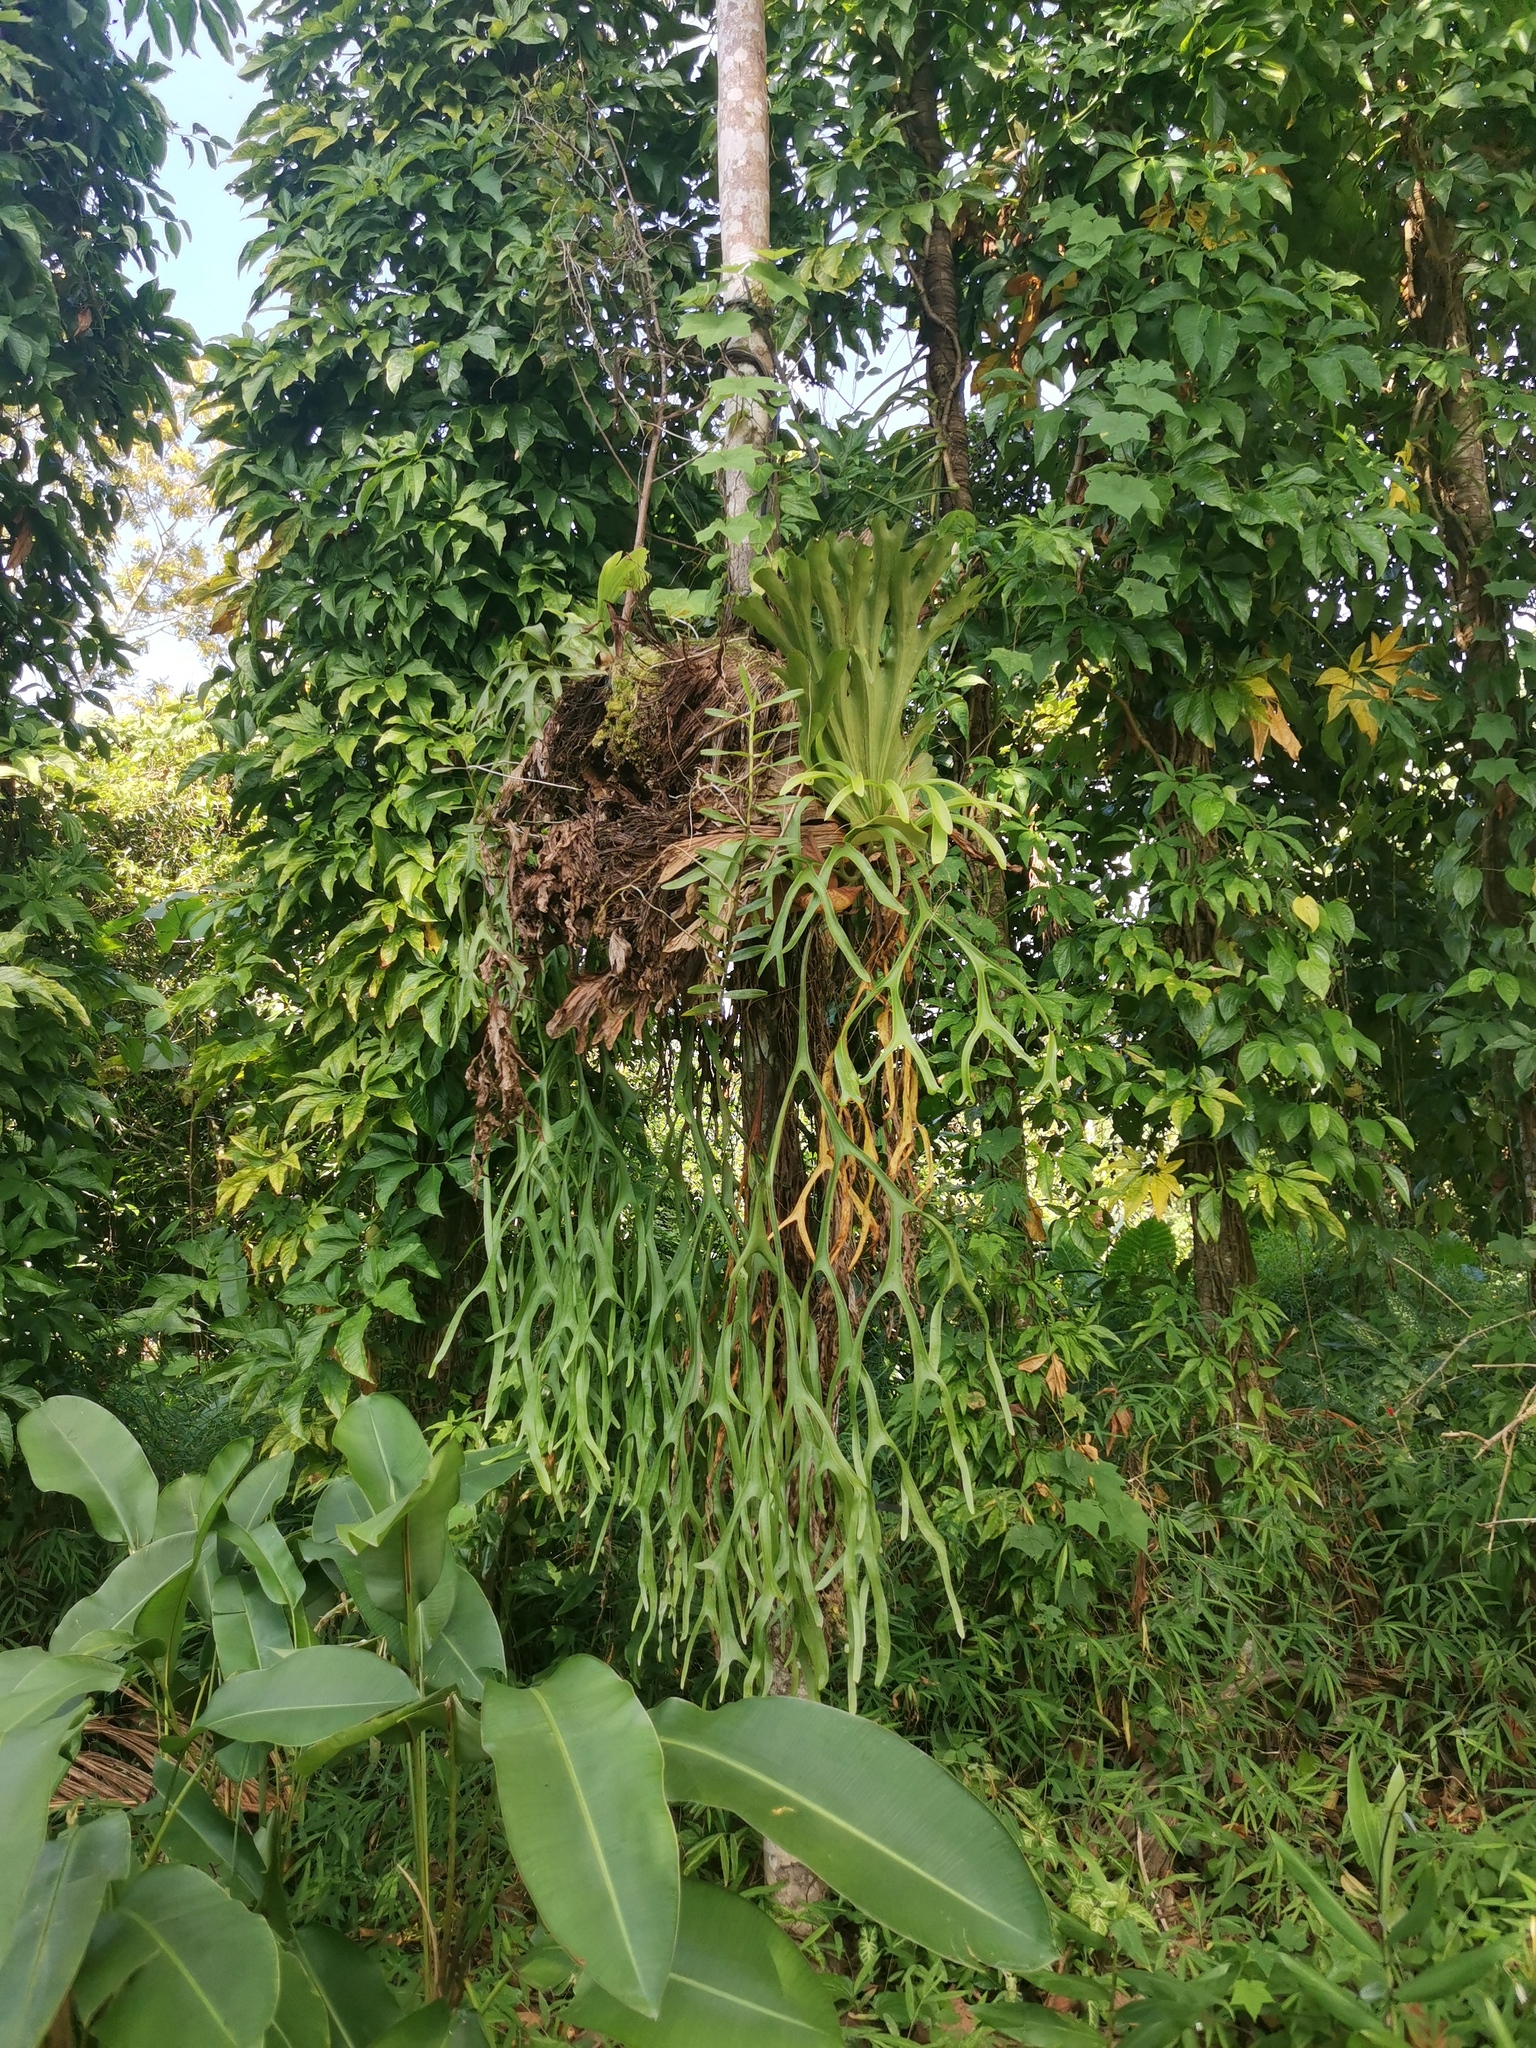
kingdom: Plantae
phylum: Tracheophyta
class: Polypodiopsida
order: Polypodiales
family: Polypodiaceae
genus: Platycerium
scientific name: Platycerium coronarium
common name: Elkhorn fern
